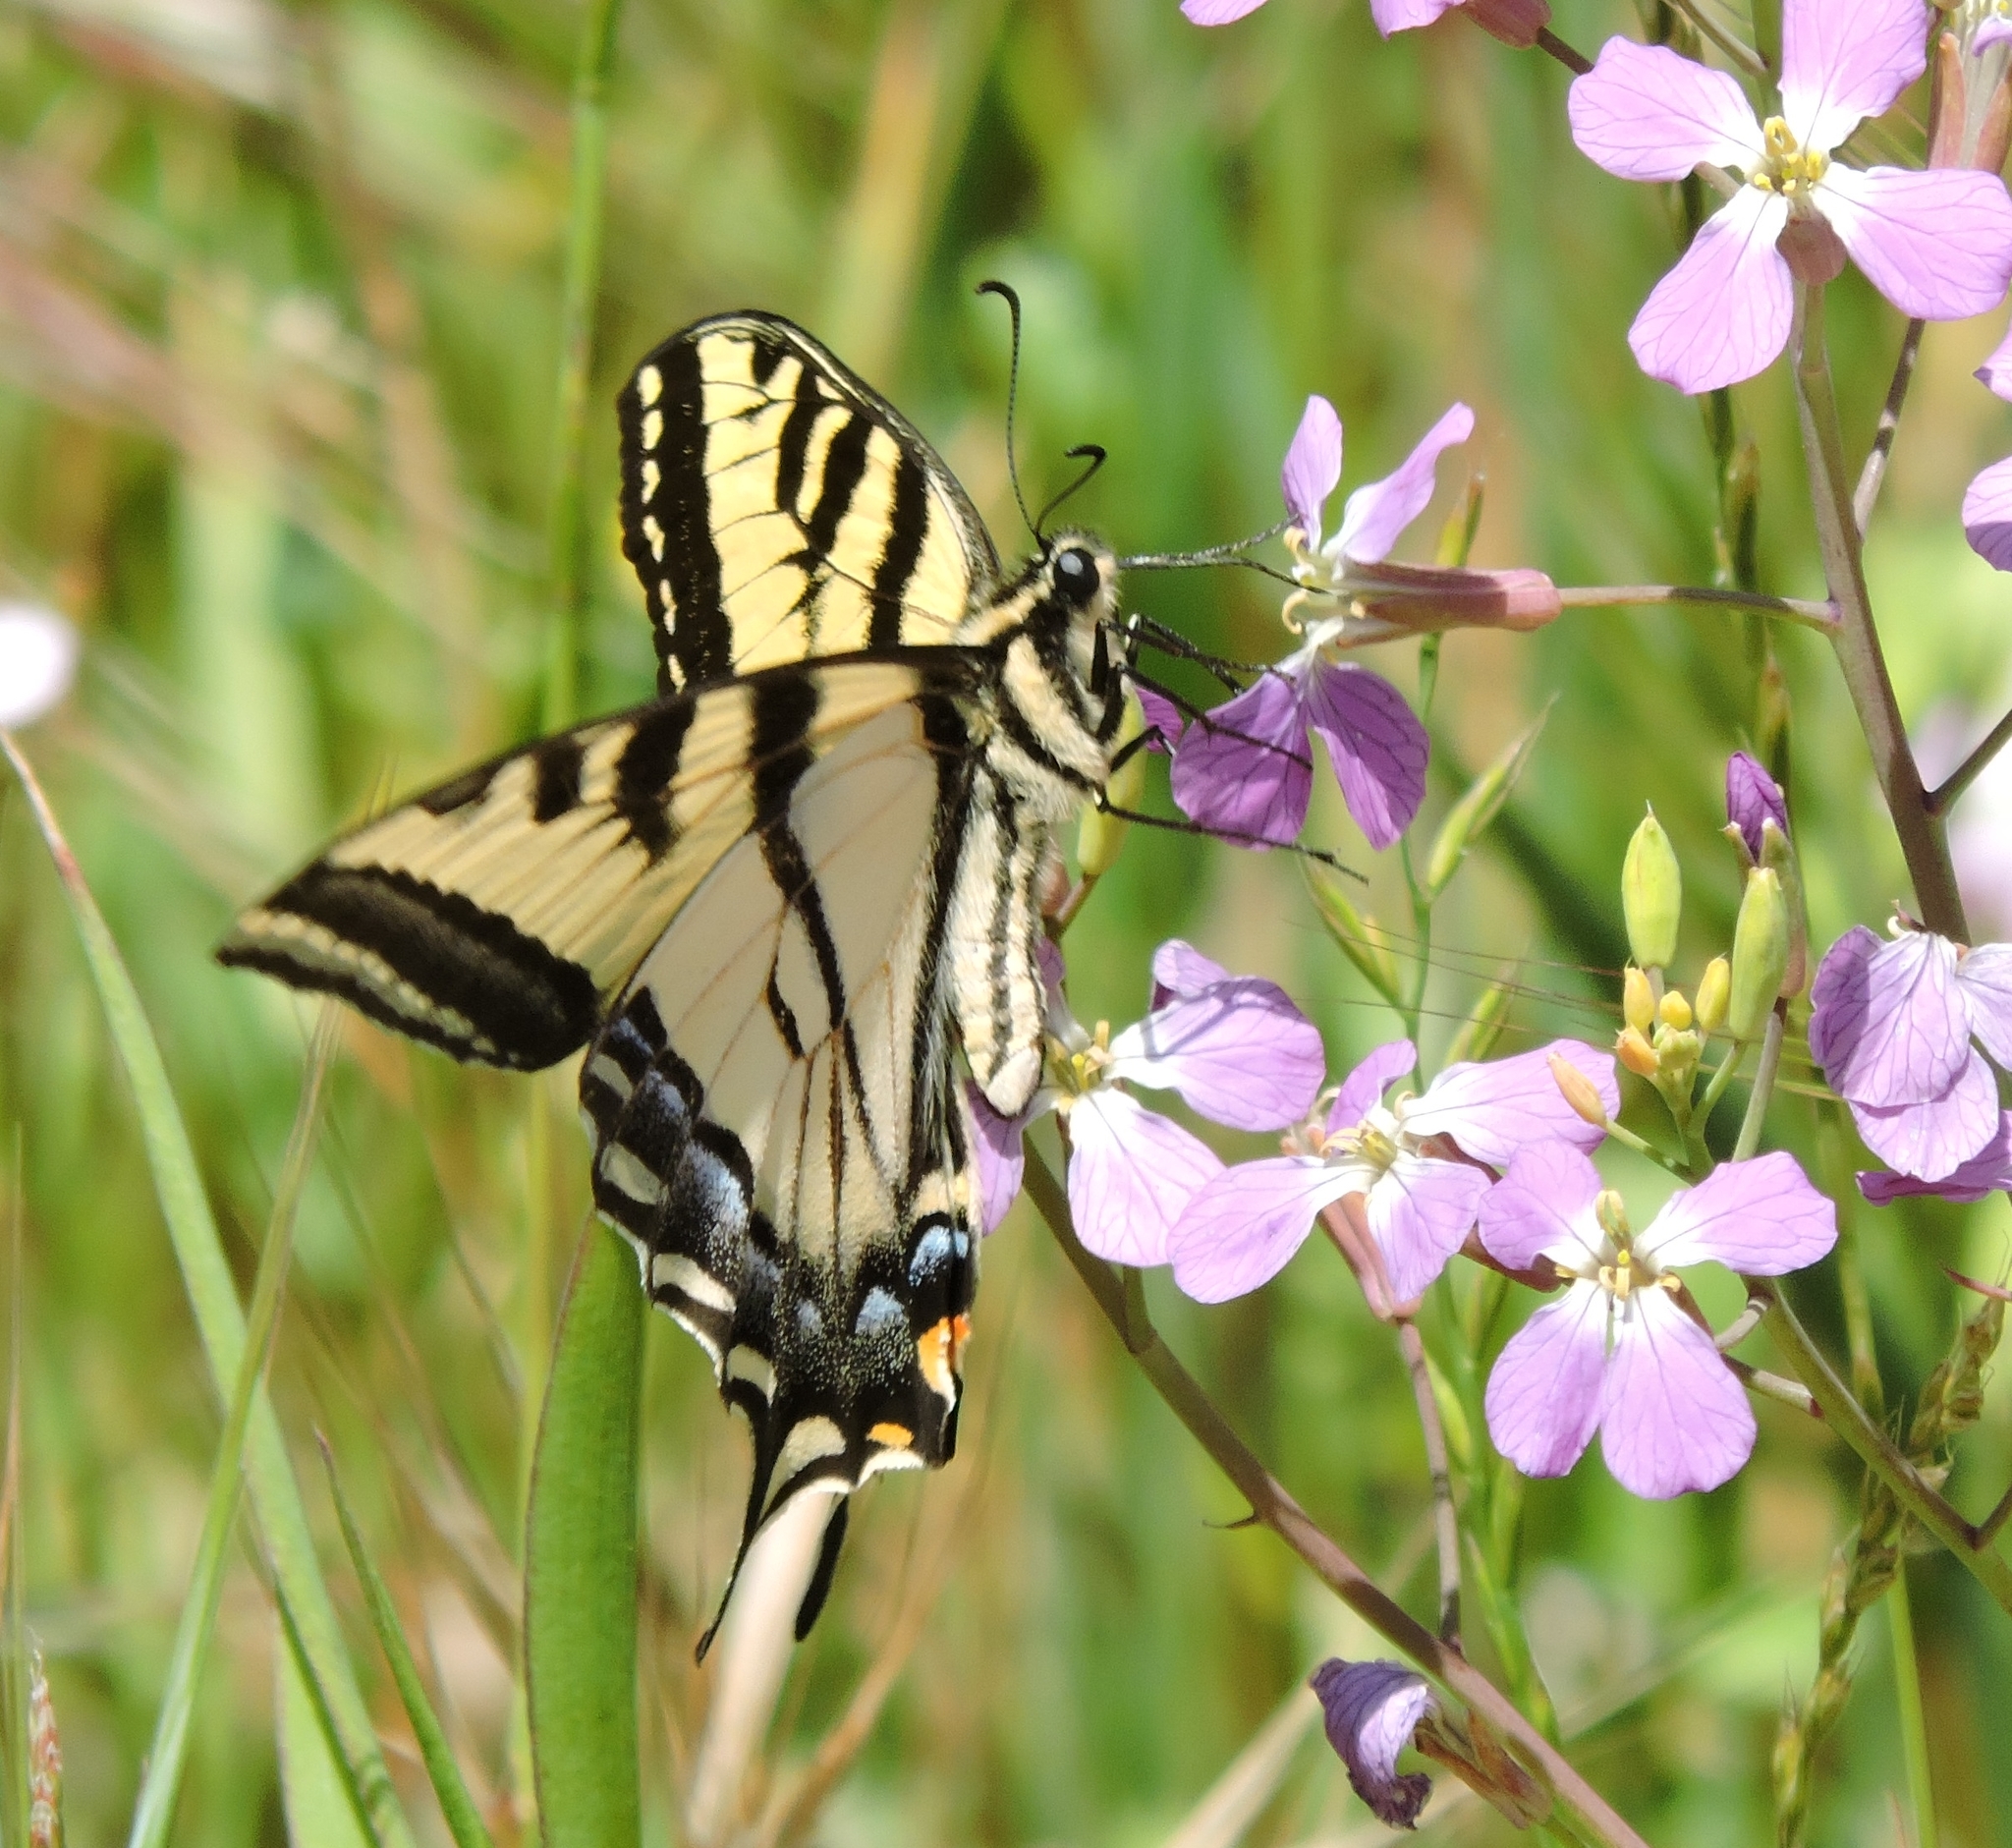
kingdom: Animalia
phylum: Arthropoda
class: Insecta
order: Lepidoptera
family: Papilionidae
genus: Papilio
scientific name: Papilio rutulus
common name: Western tiger swallowtail
